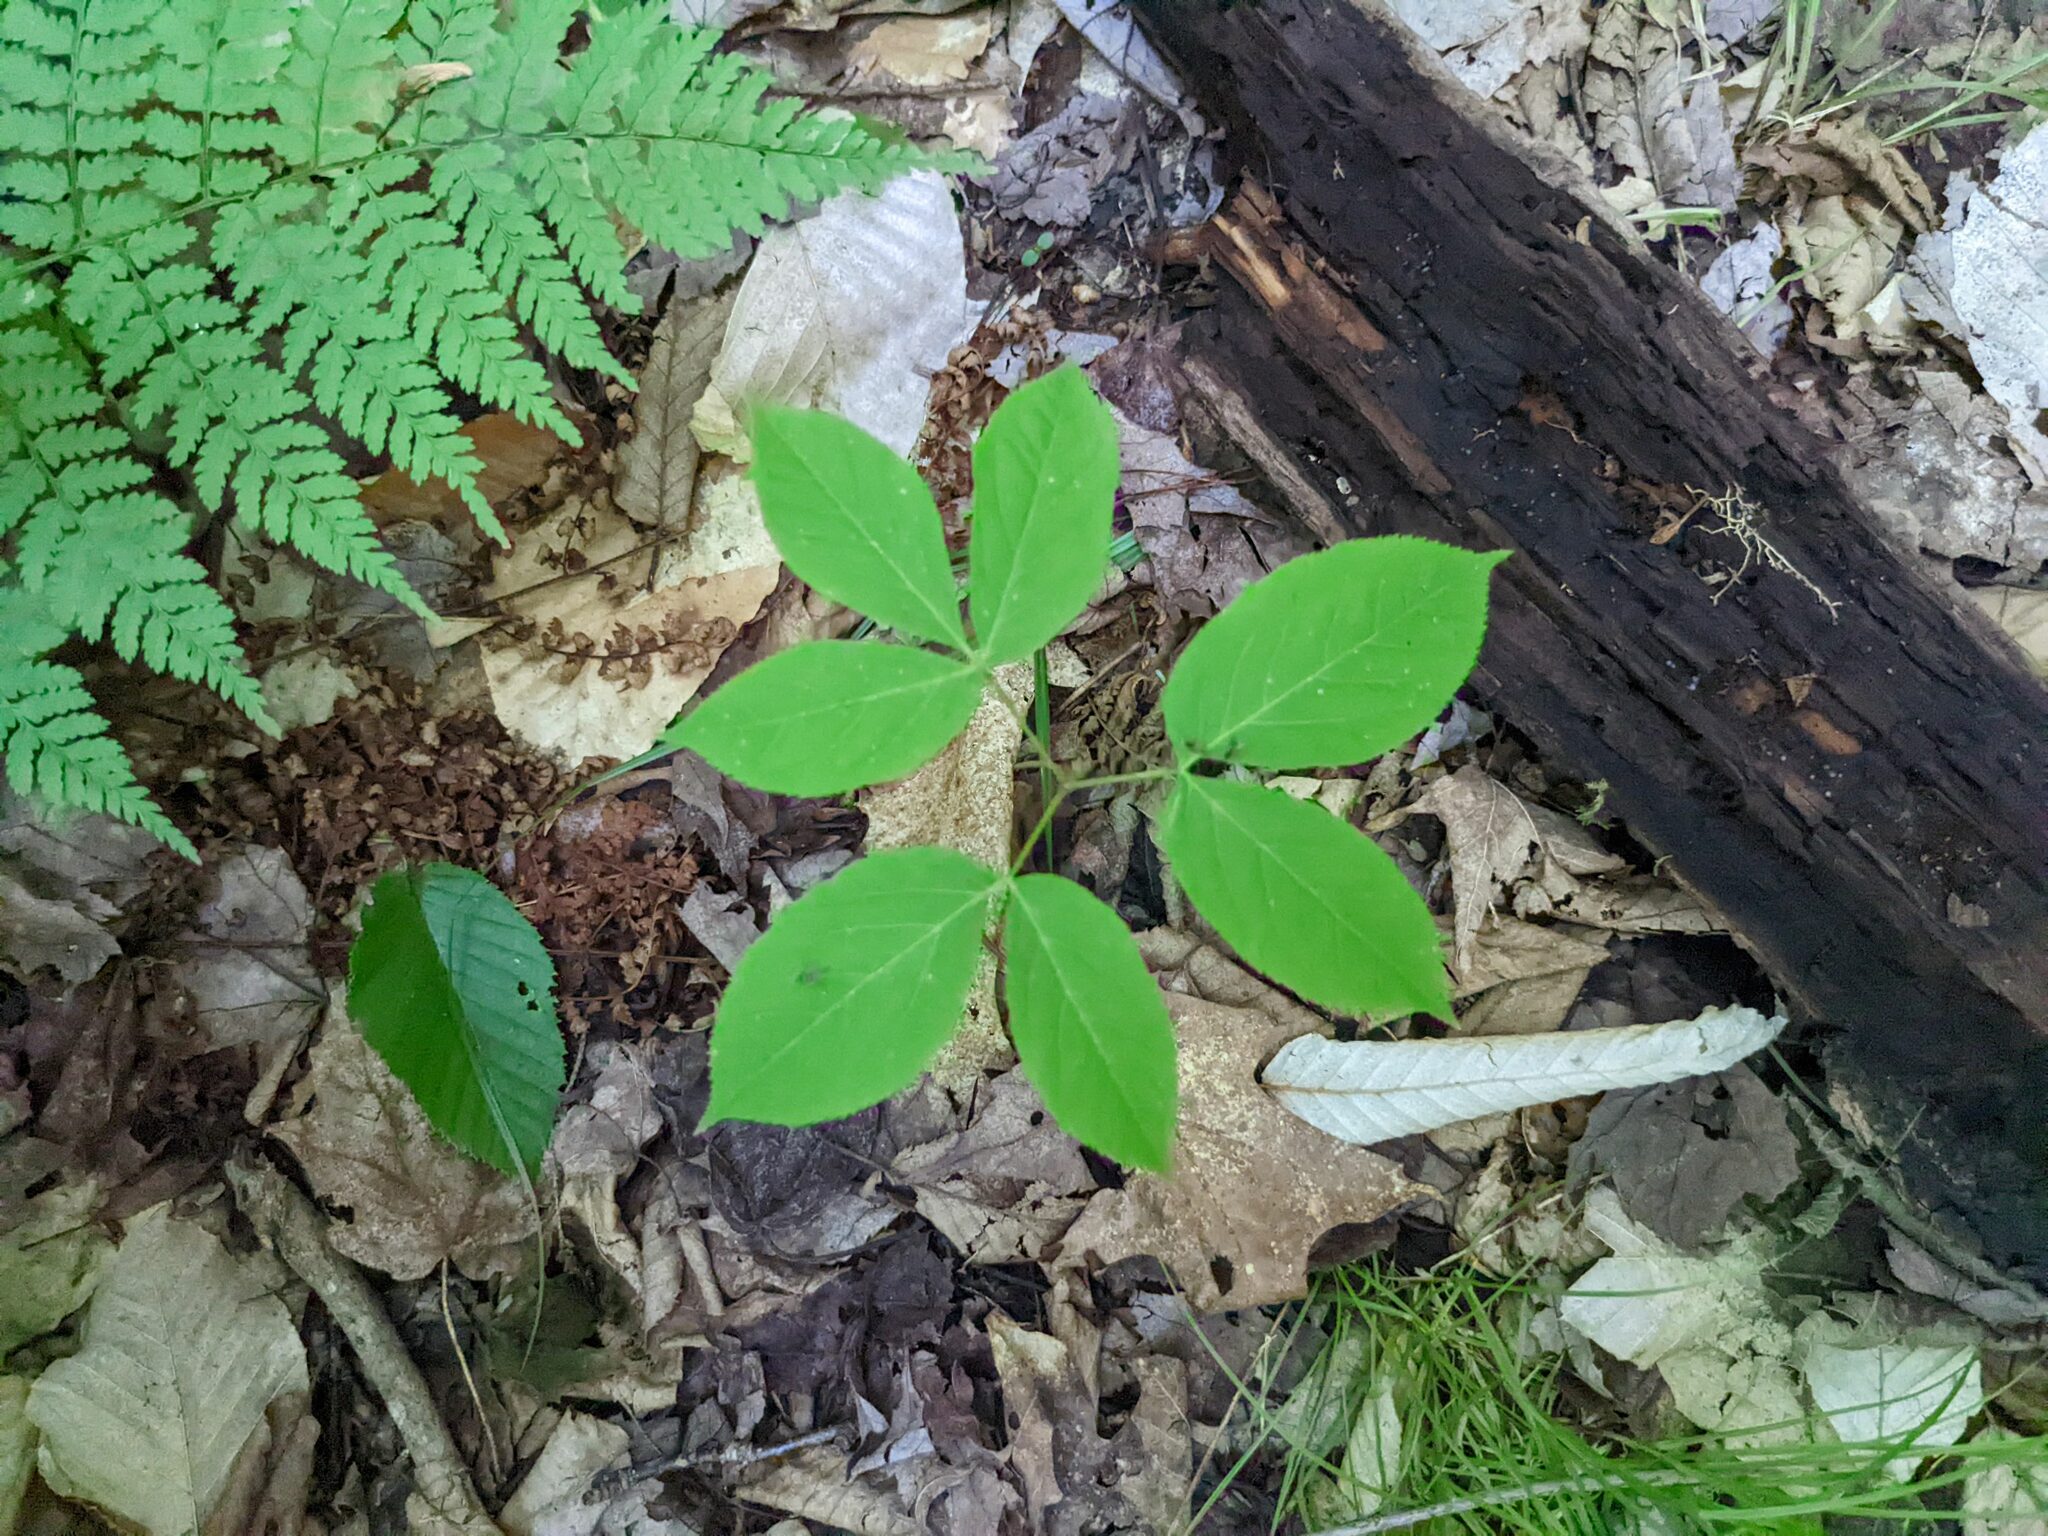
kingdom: Plantae
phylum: Tracheophyta
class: Magnoliopsida
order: Apiales
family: Araliaceae
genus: Aralia
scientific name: Aralia nudicaulis
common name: Wild sarsaparilla
